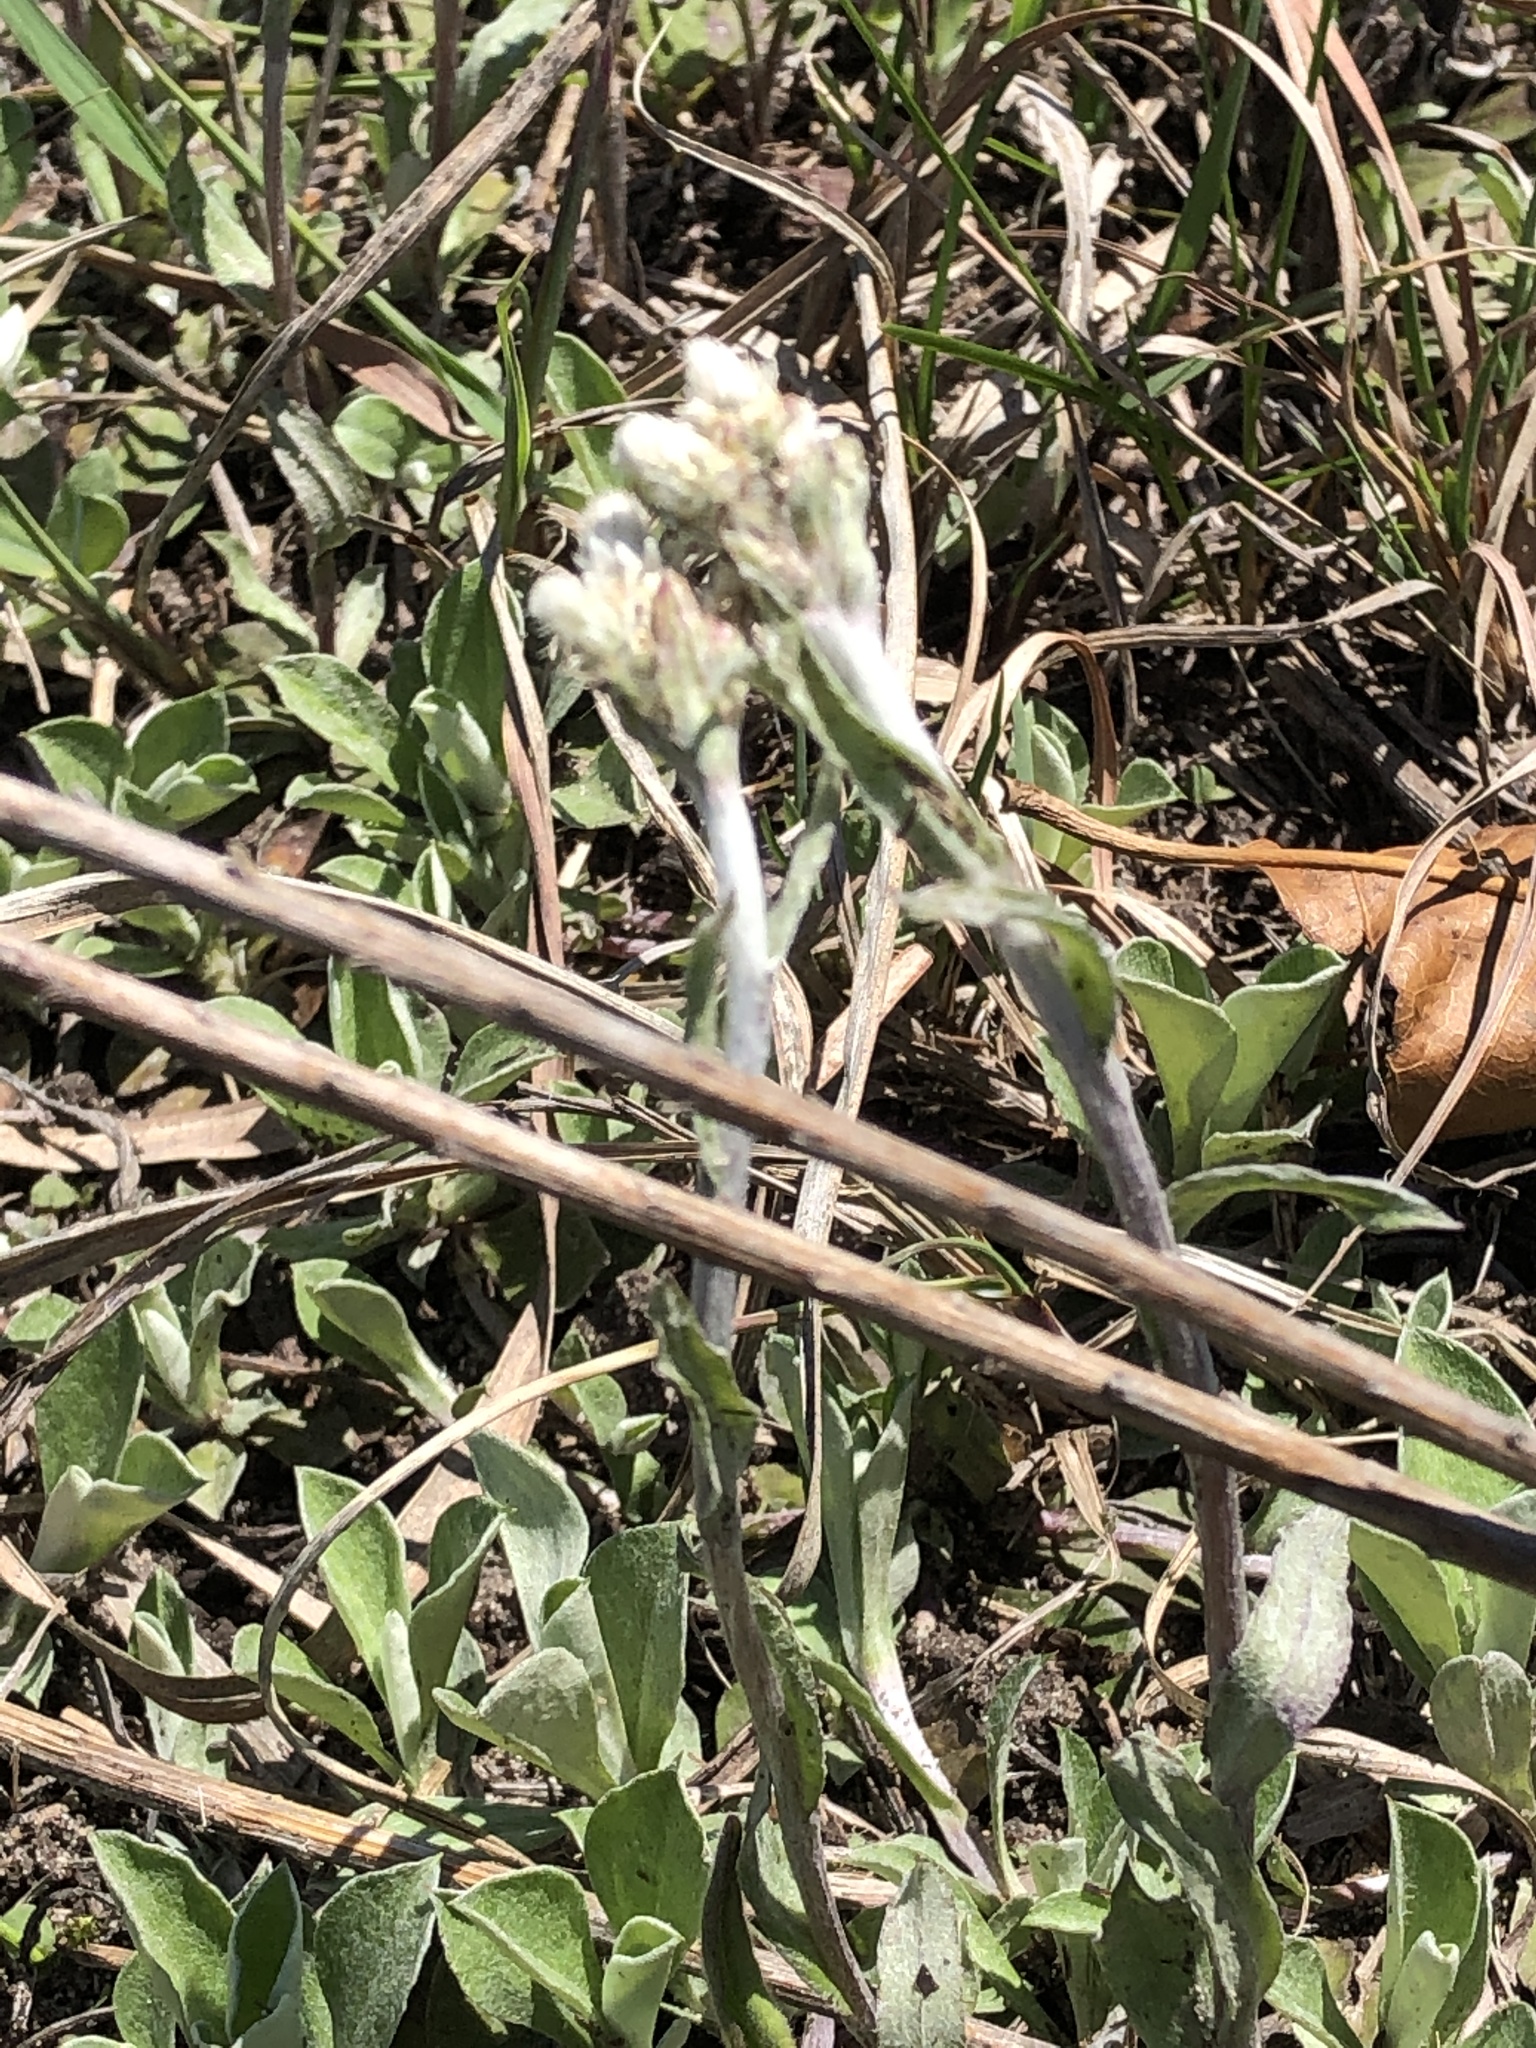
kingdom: Plantae
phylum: Tracheophyta
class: Magnoliopsida
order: Asterales
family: Asteraceae
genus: Antennaria
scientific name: Antennaria howellii
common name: Howell's pussytoes
